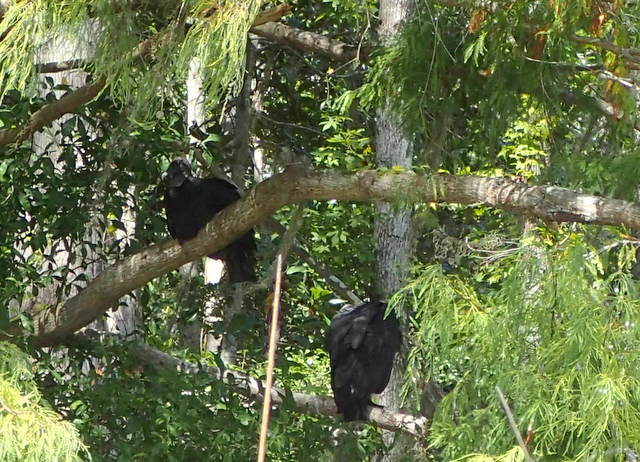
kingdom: Animalia
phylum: Chordata
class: Aves
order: Accipitriformes
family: Cathartidae
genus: Coragyps
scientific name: Coragyps atratus
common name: Black vulture
